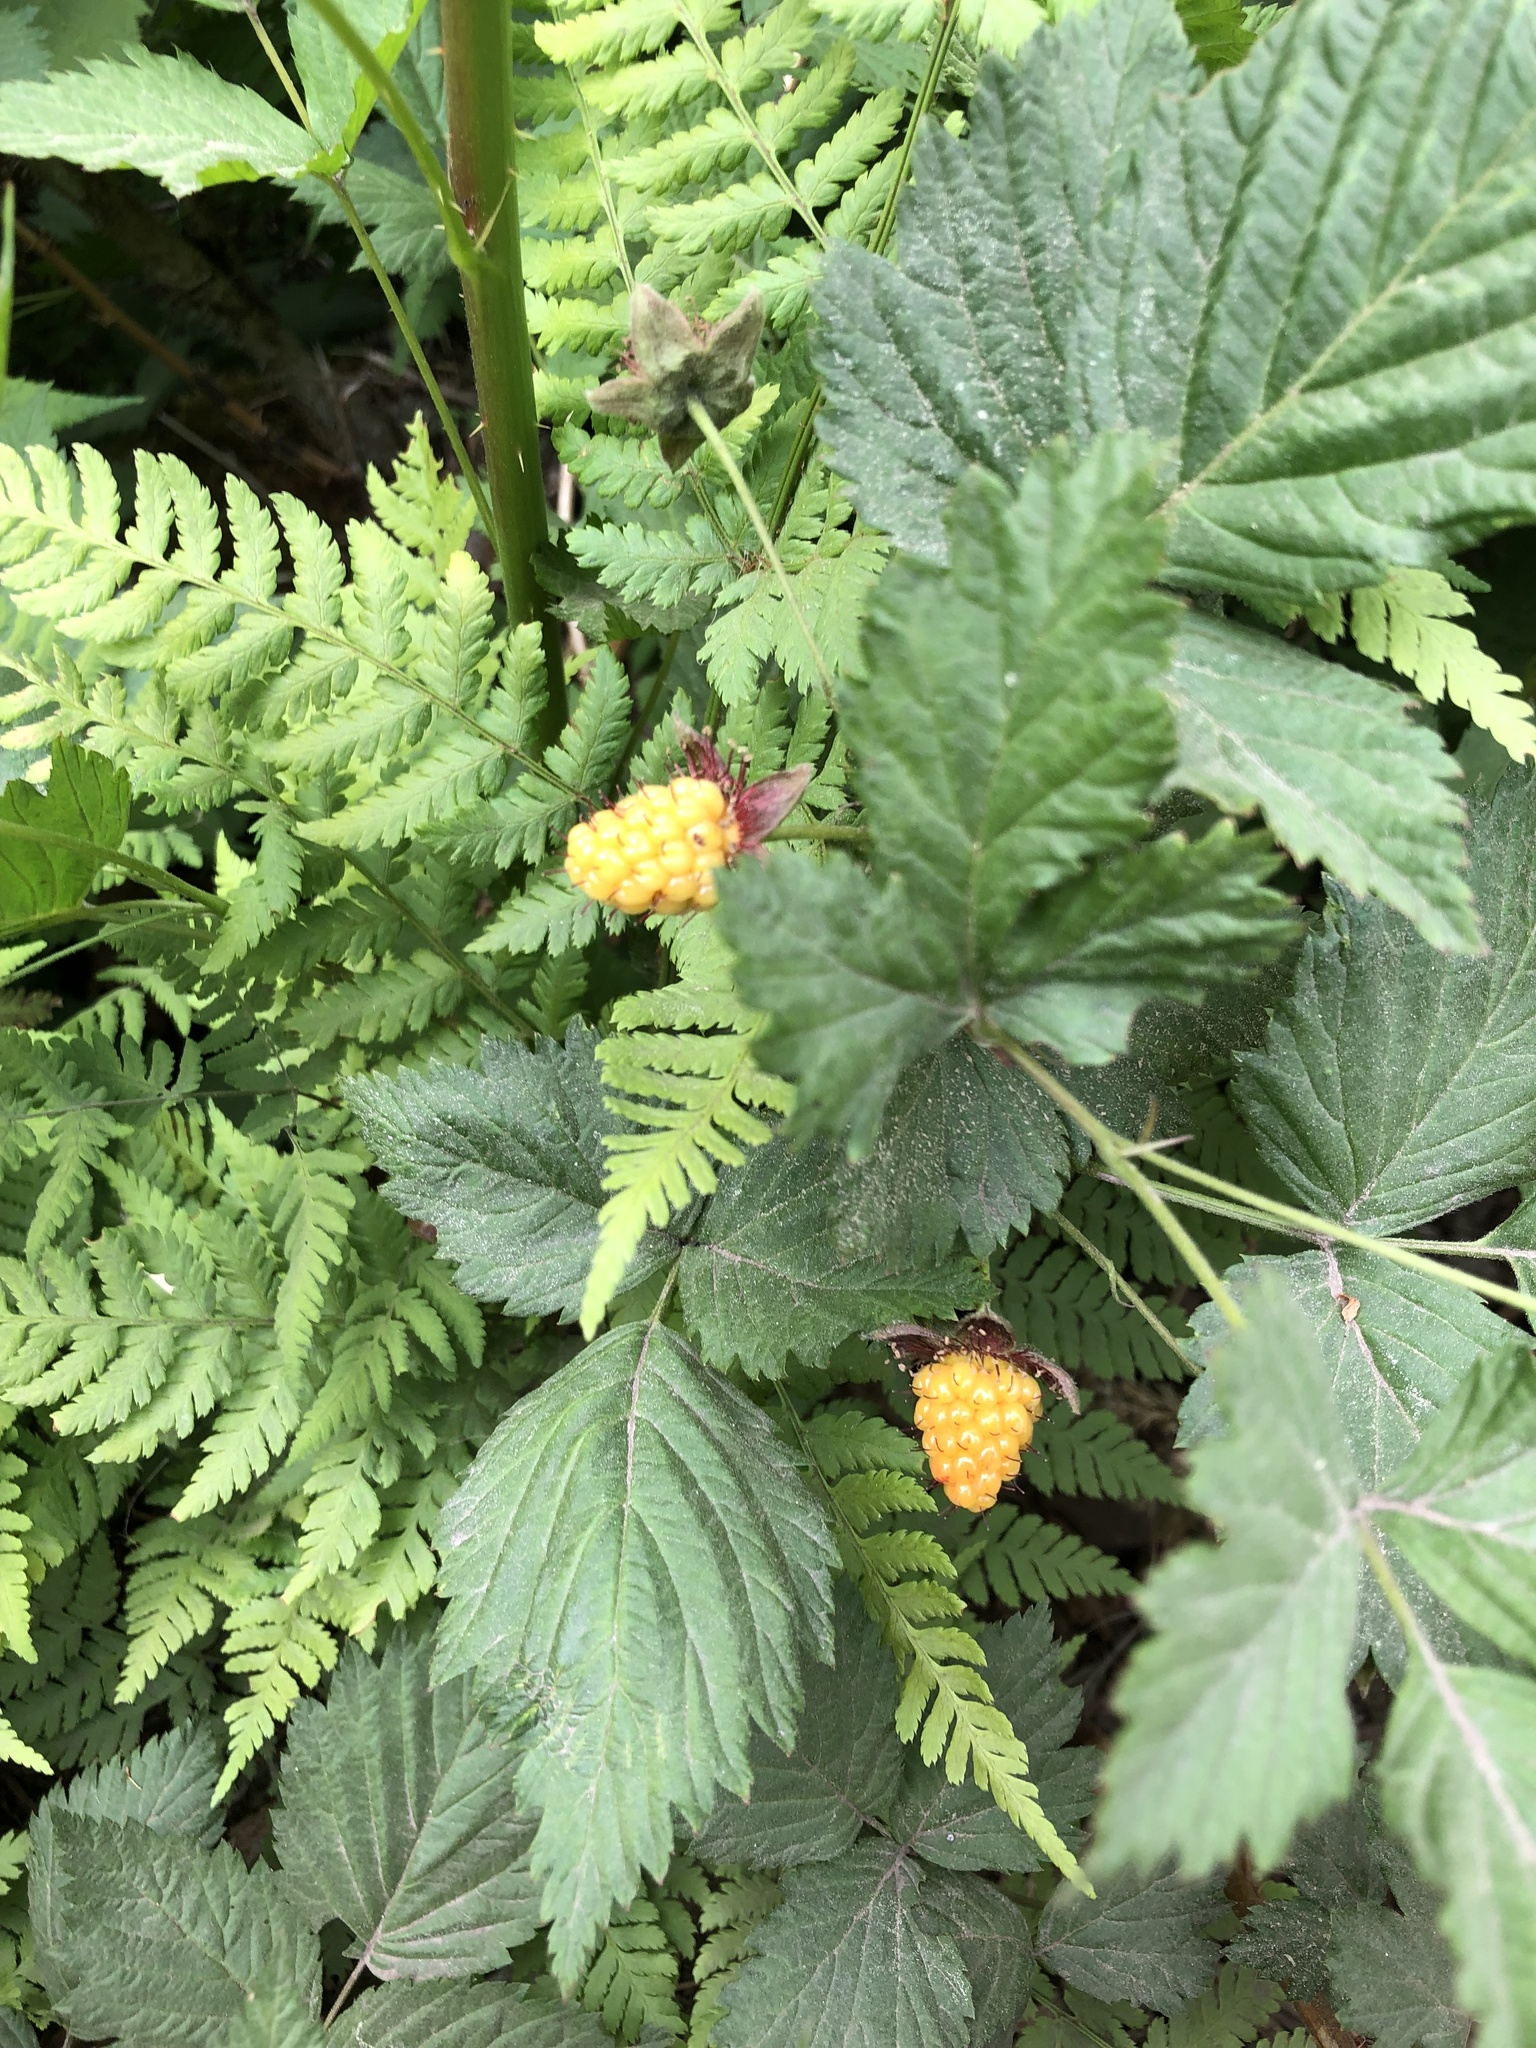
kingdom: Plantae
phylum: Tracheophyta
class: Magnoliopsida
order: Rosales
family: Rosaceae
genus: Rubus
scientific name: Rubus spectabilis
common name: Salmonberry
